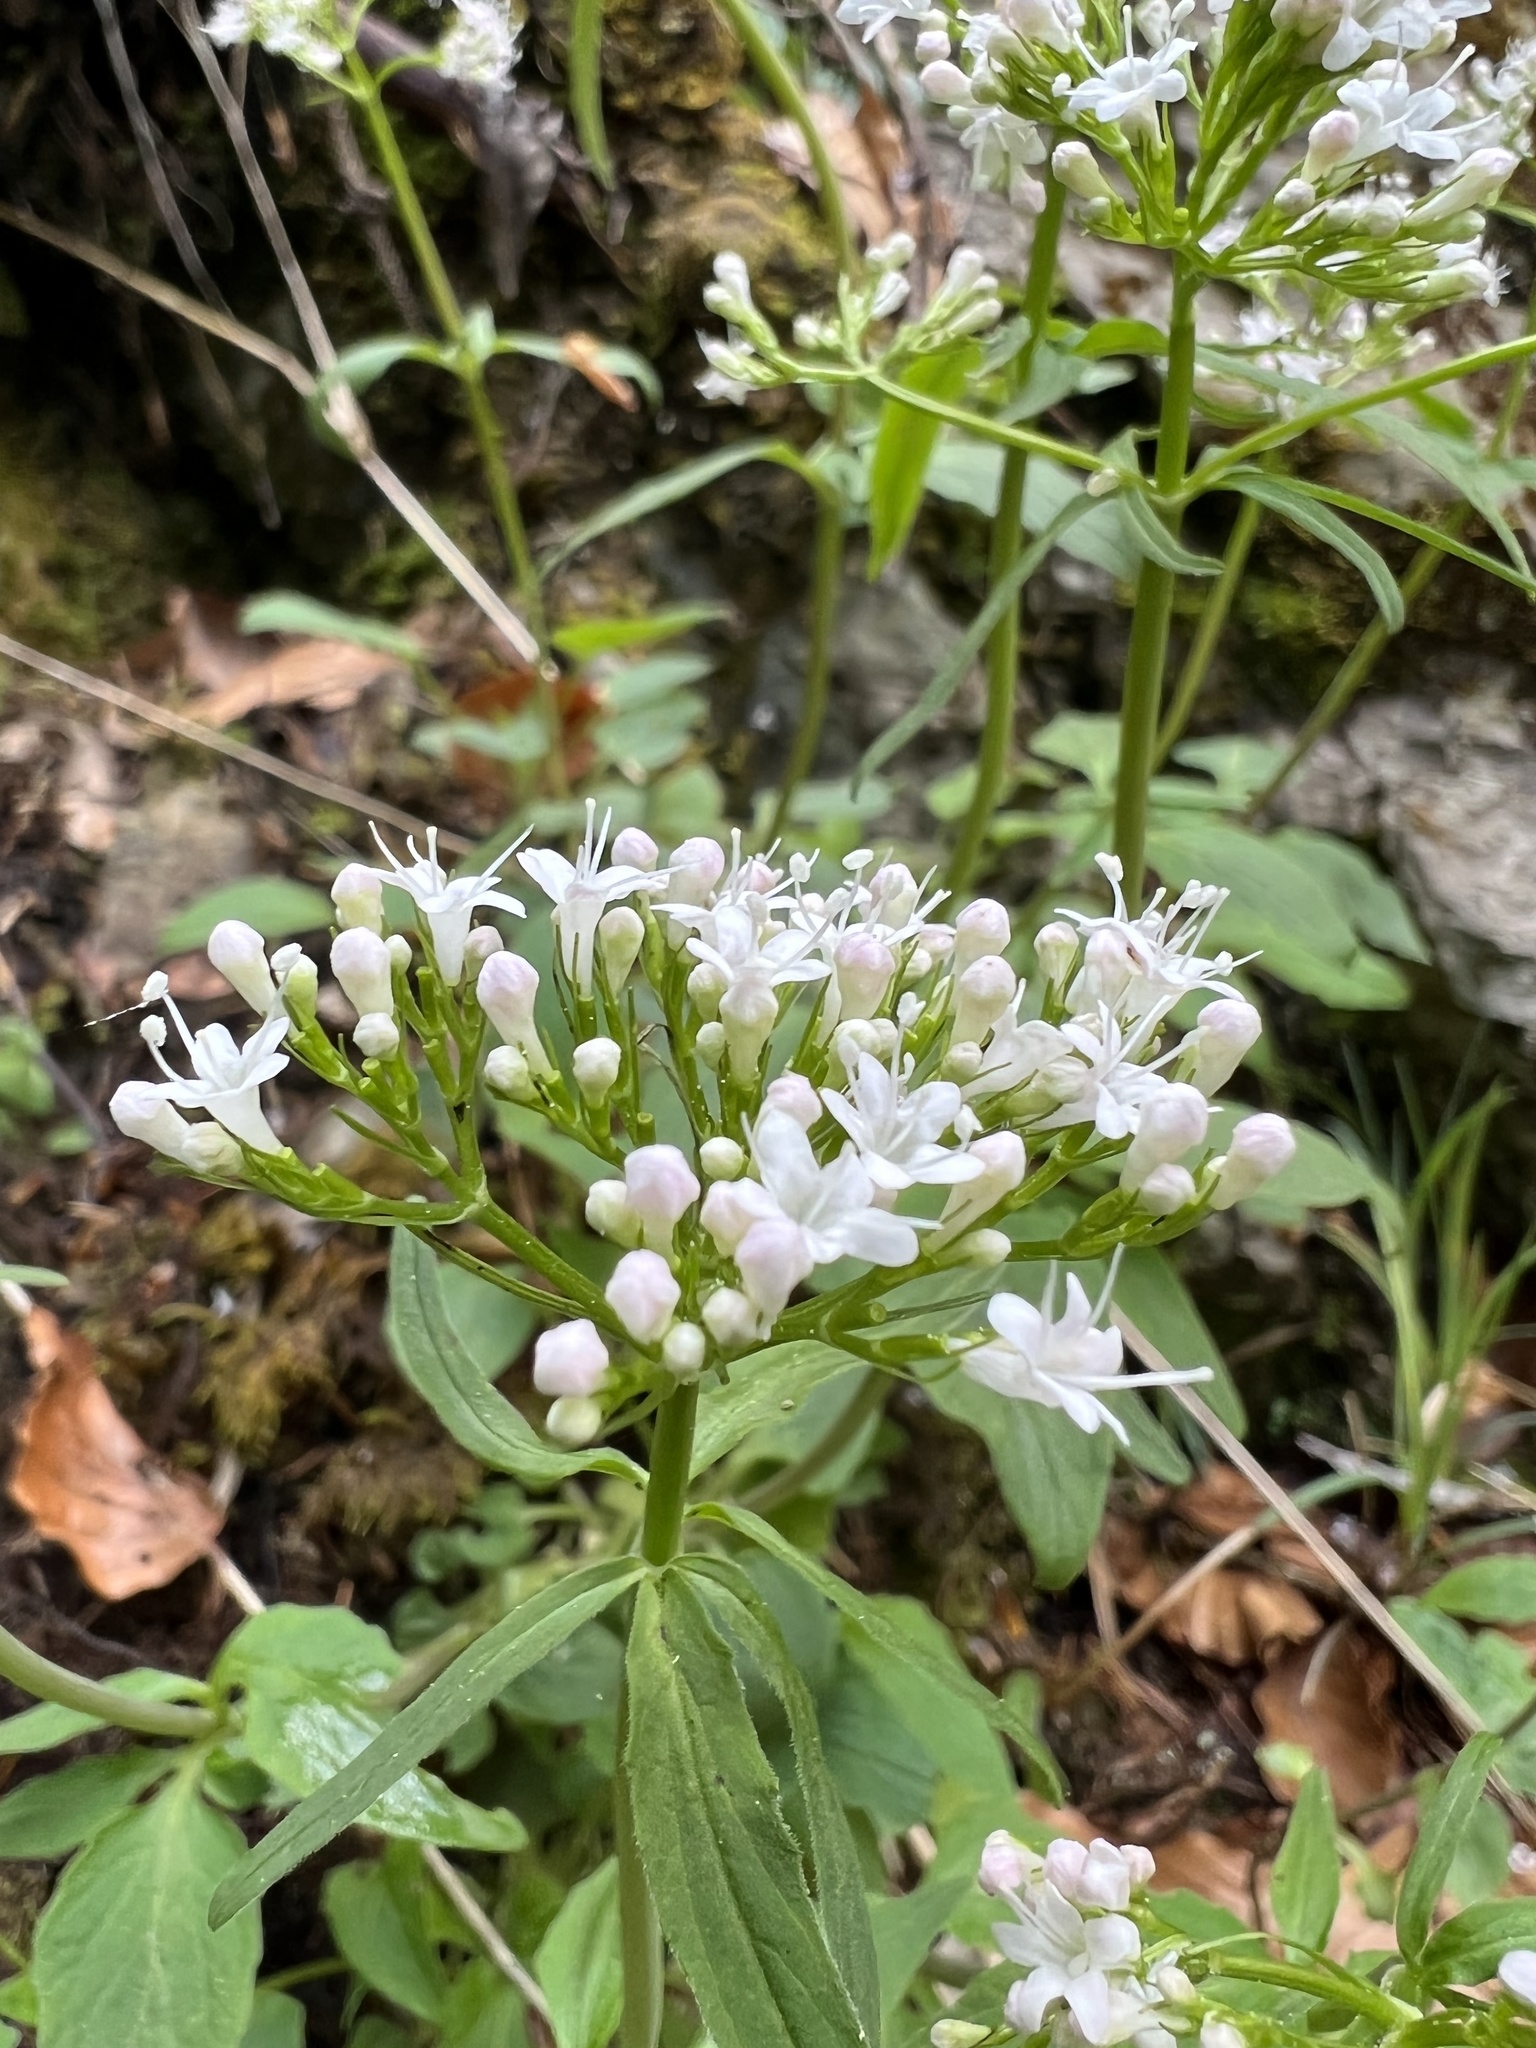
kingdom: Plantae
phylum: Tracheophyta
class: Magnoliopsida
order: Dipsacales
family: Caprifoliaceae
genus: Valeriana
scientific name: Valeriana tripteris
